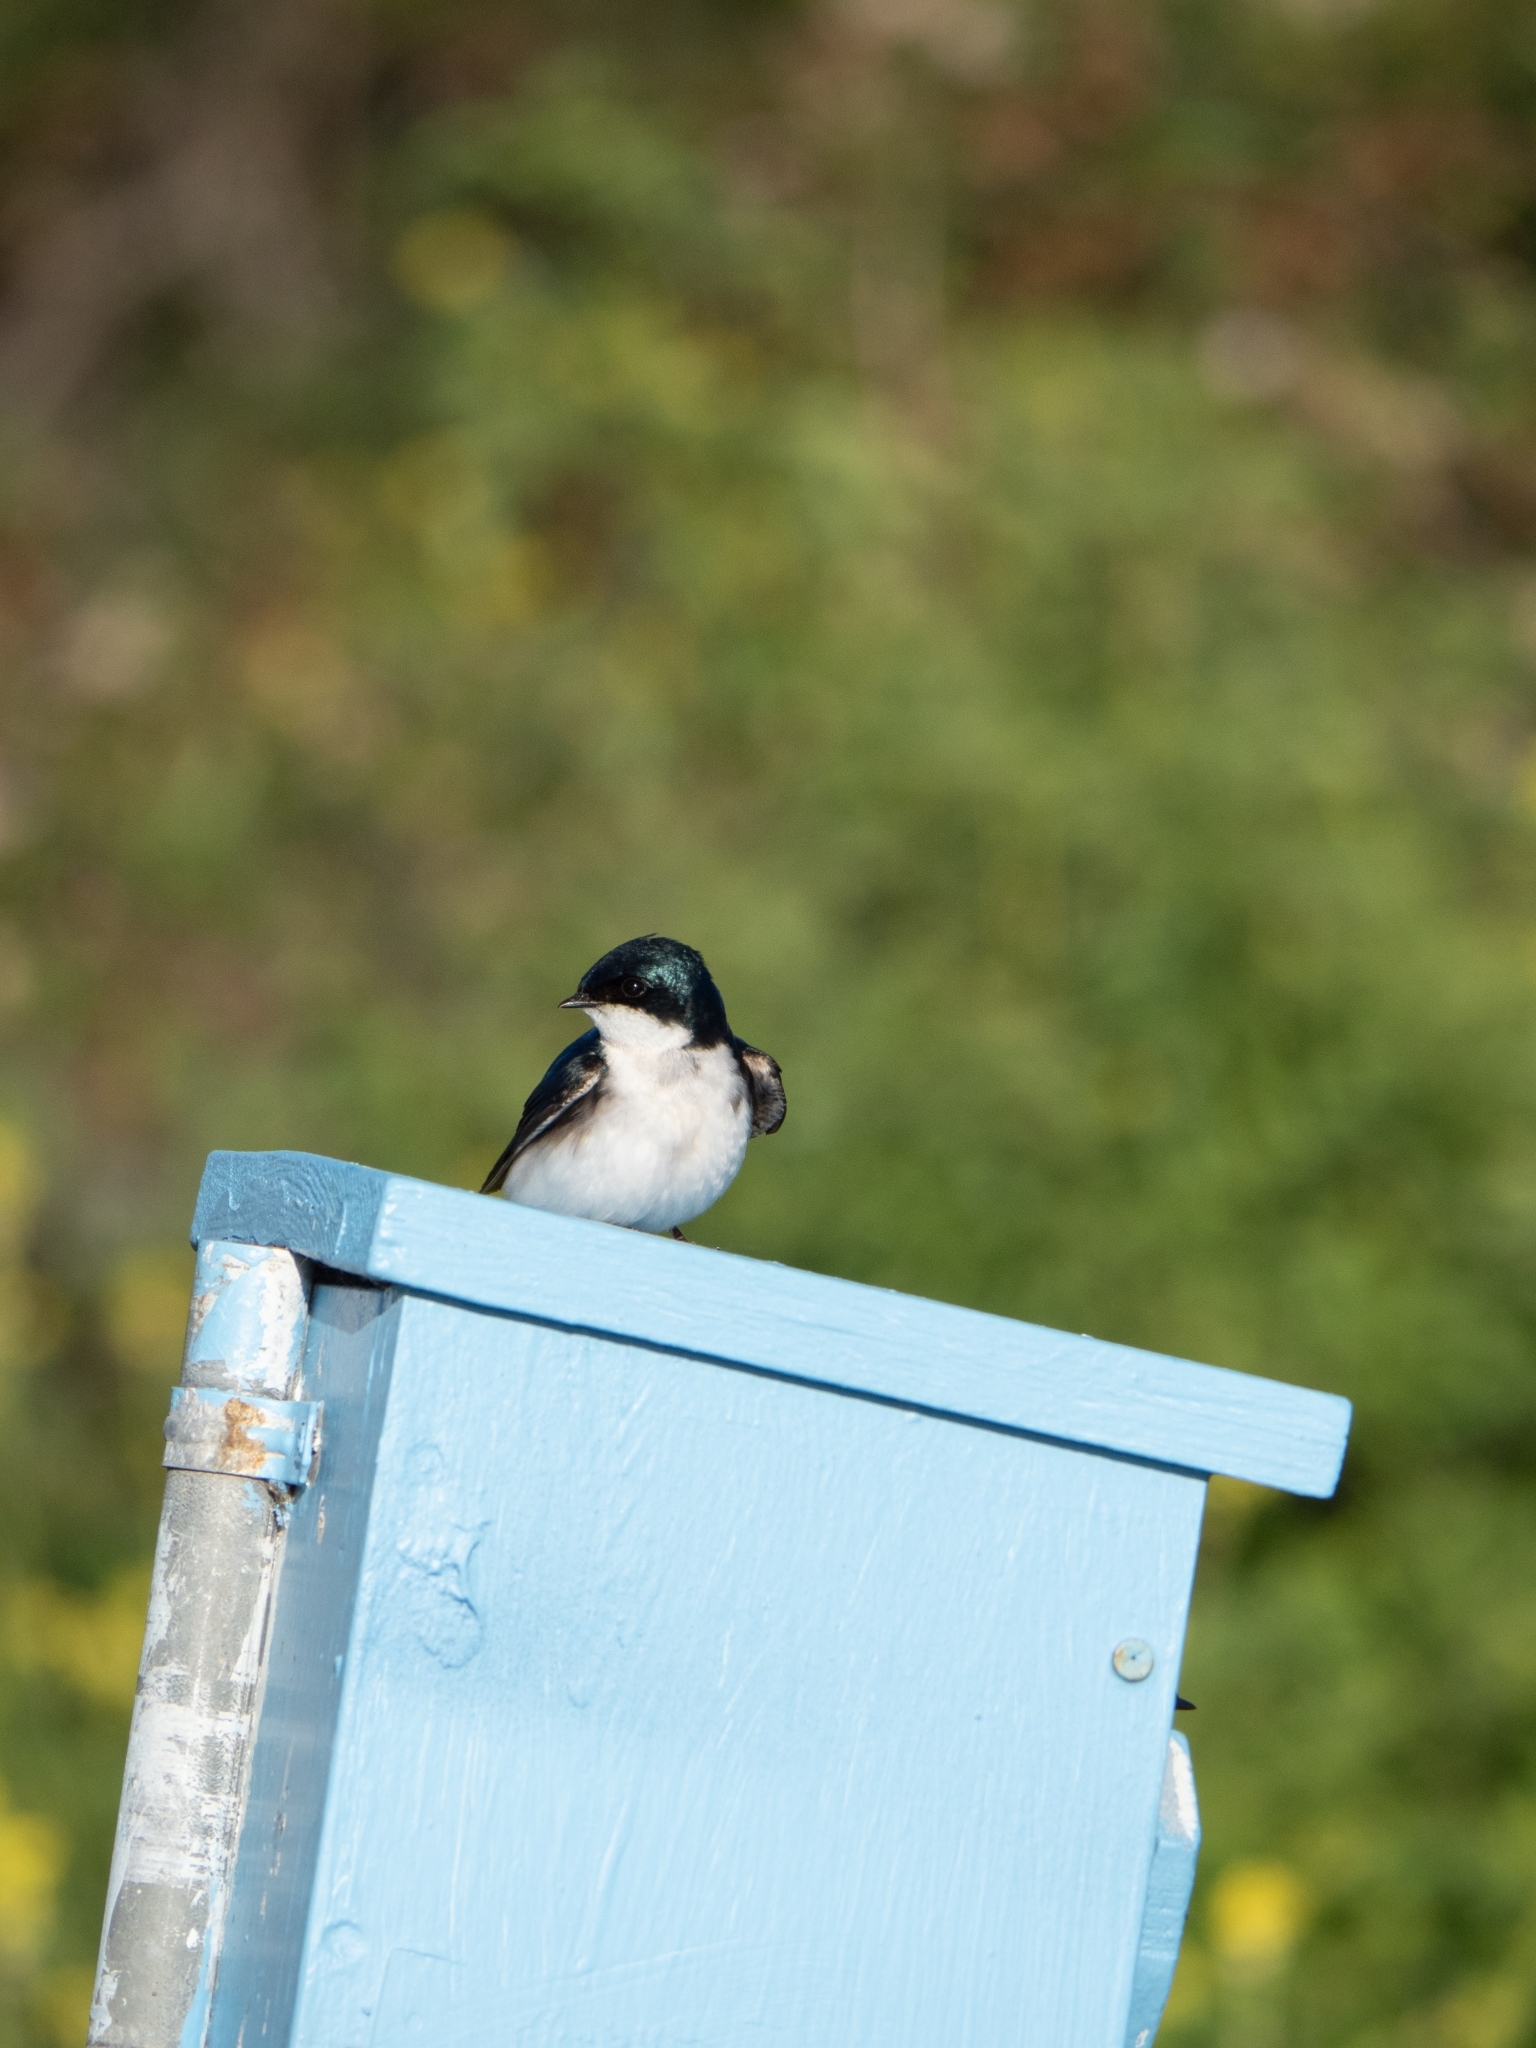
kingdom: Animalia
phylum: Chordata
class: Aves
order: Passeriformes
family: Hirundinidae
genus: Tachycineta
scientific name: Tachycineta bicolor
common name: Tree swallow
